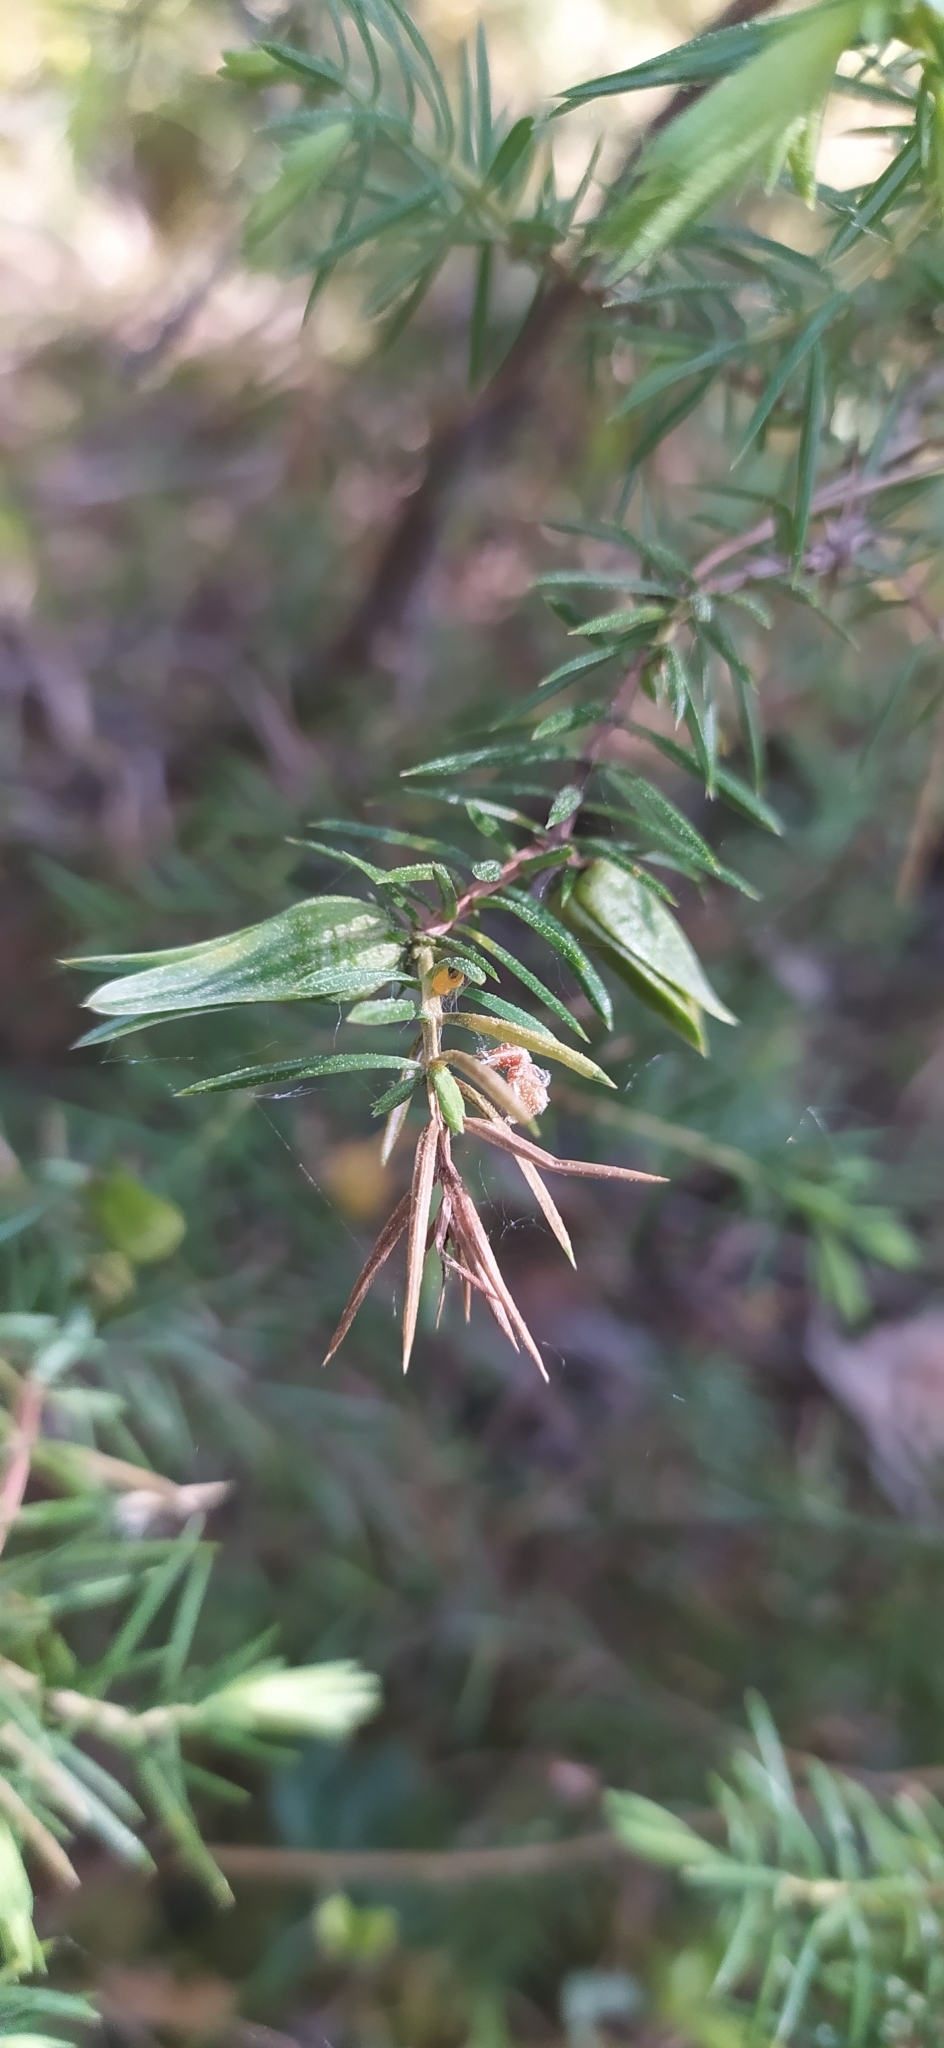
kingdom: Plantae
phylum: Tracheophyta
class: Pinopsida
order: Pinales
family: Cupressaceae
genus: Juniperus
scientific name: Juniperus communis
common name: Common juniper
